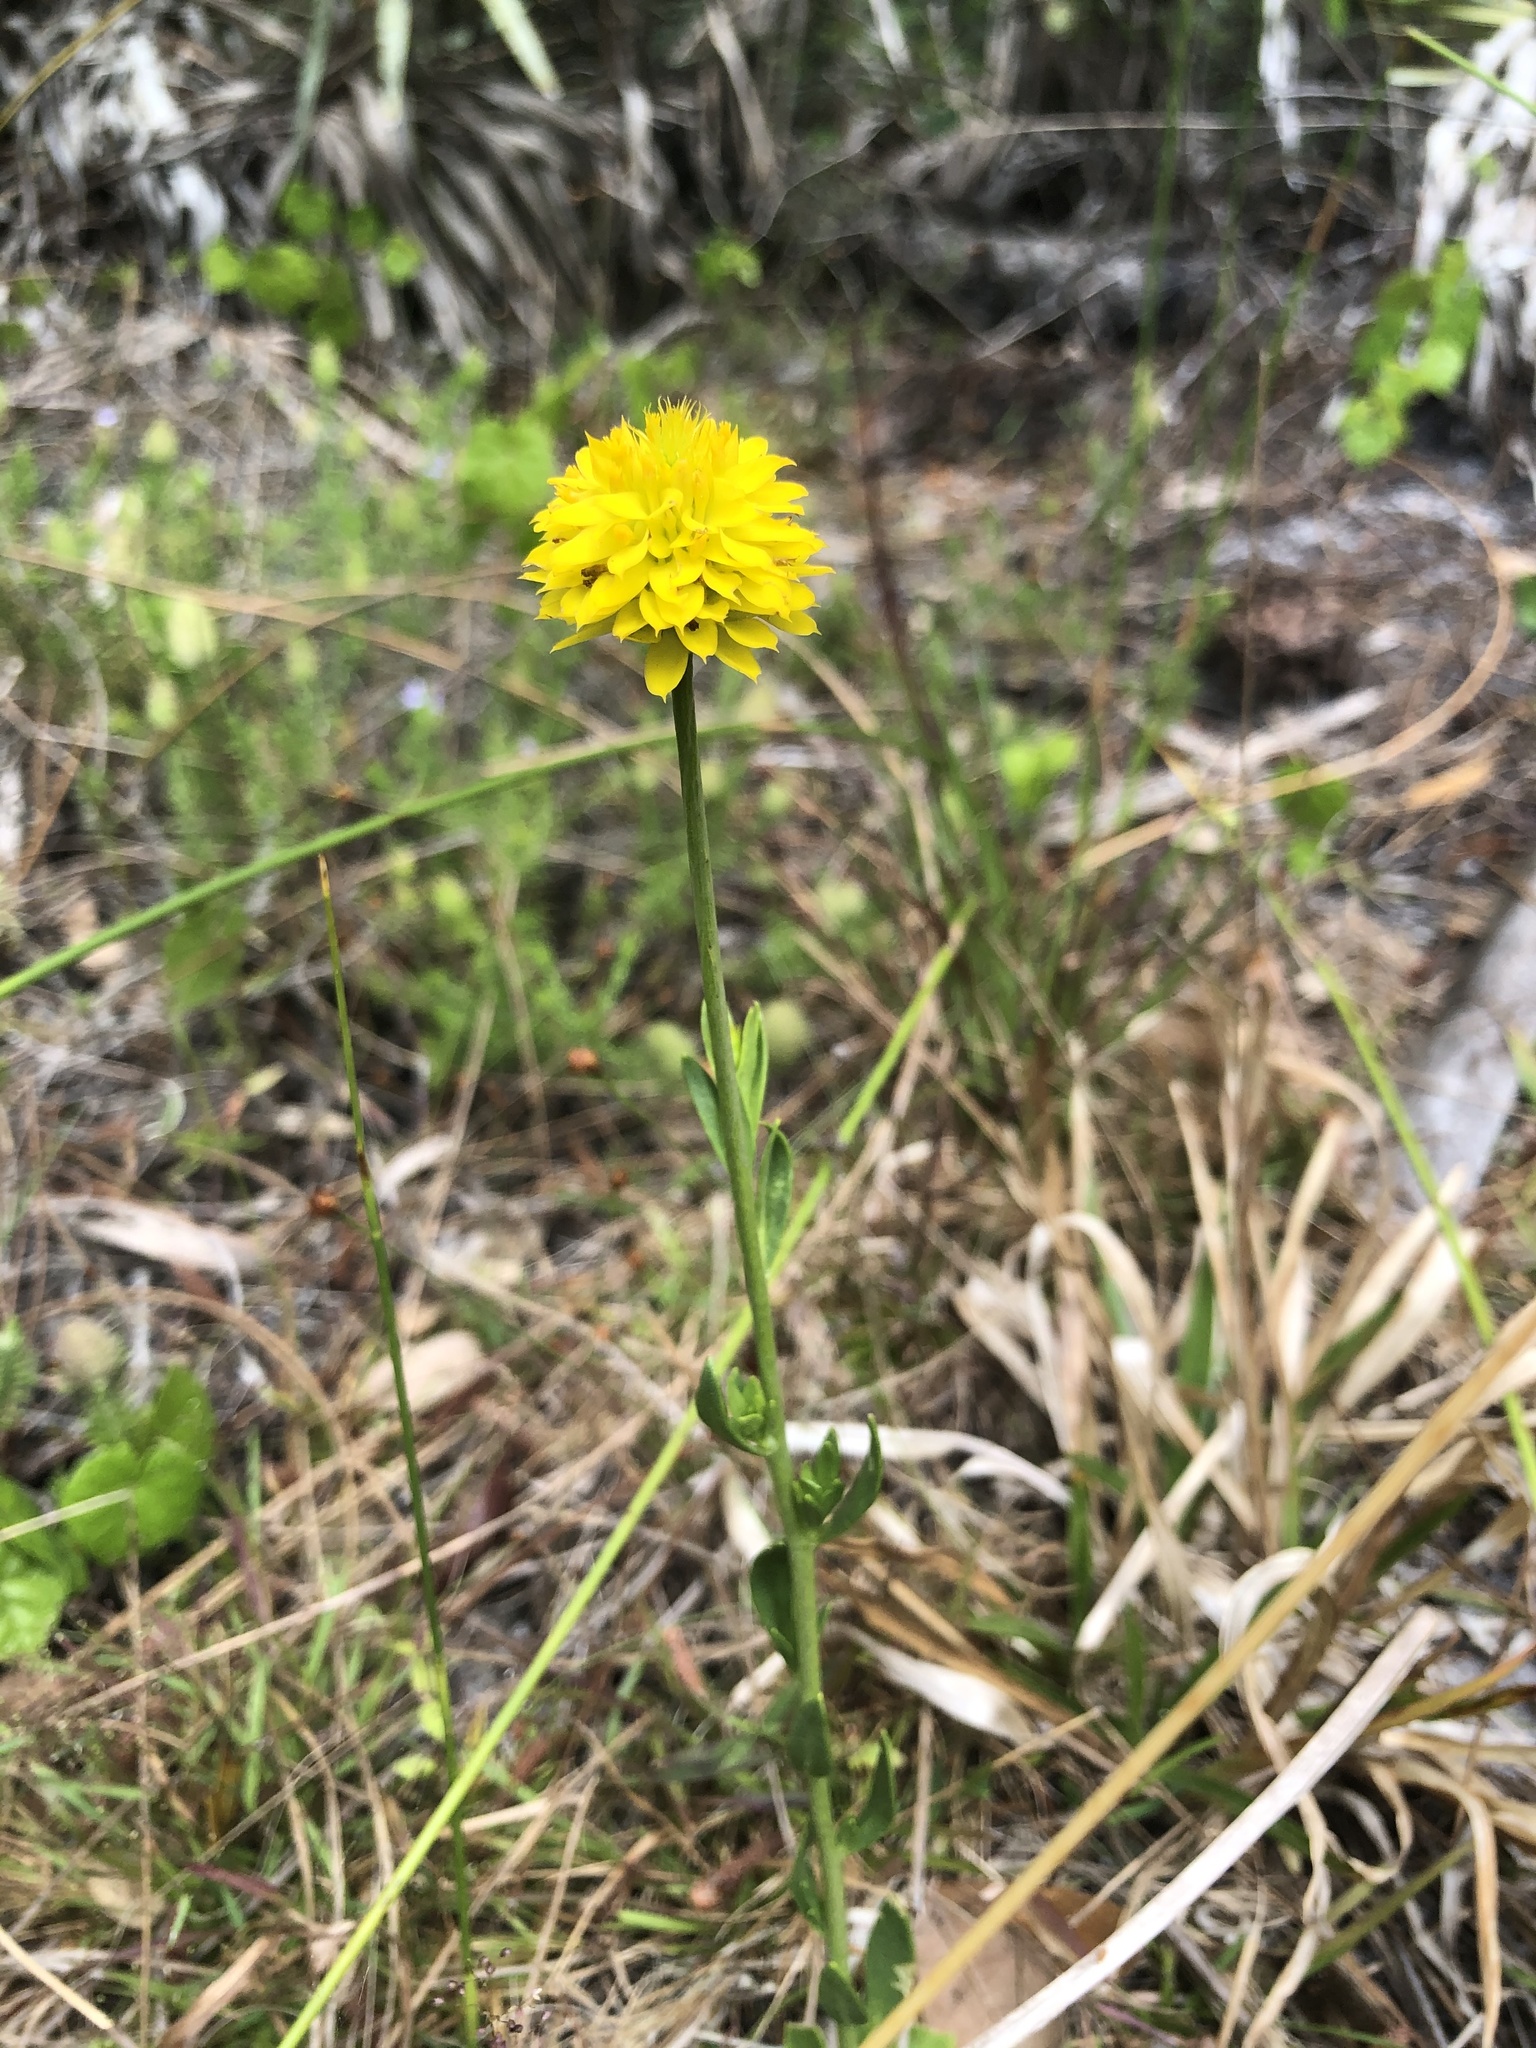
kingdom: Plantae
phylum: Tracheophyta
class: Magnoliopsida
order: Fabales
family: Polygalaceae
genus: Polygala
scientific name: Polygala rugelii
